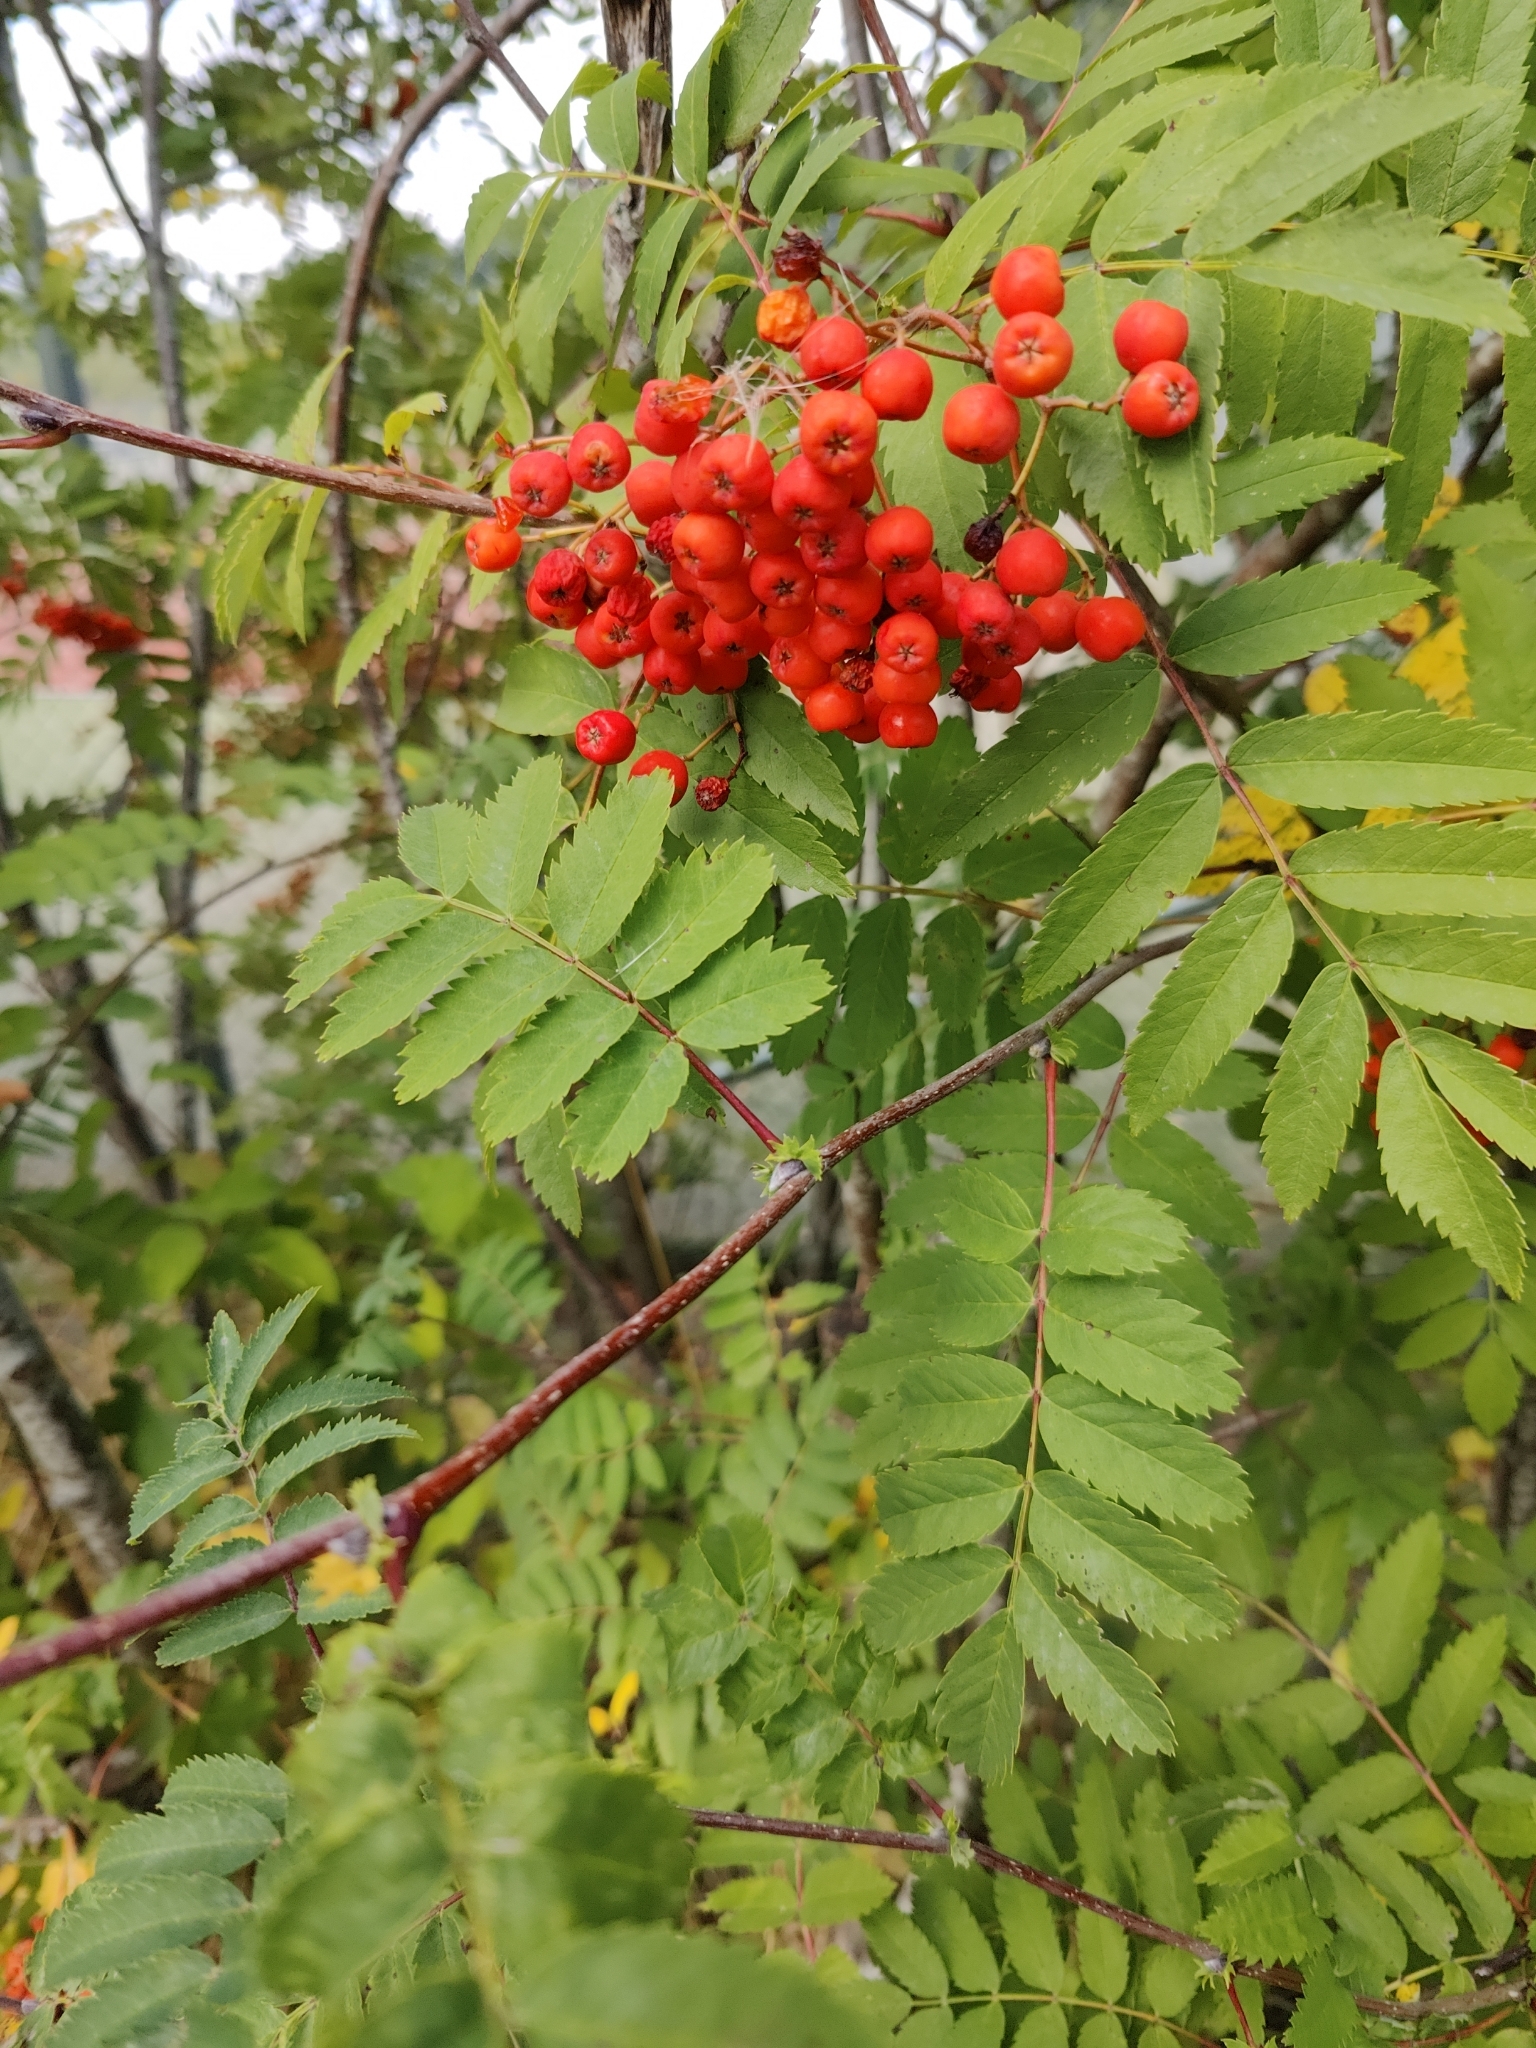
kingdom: Plantae
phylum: Tracheophyta
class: Magnoliopsida
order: Rosales
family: Rosaceae
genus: Sorbus
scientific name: Sorbus aucuparia
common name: Rowan
